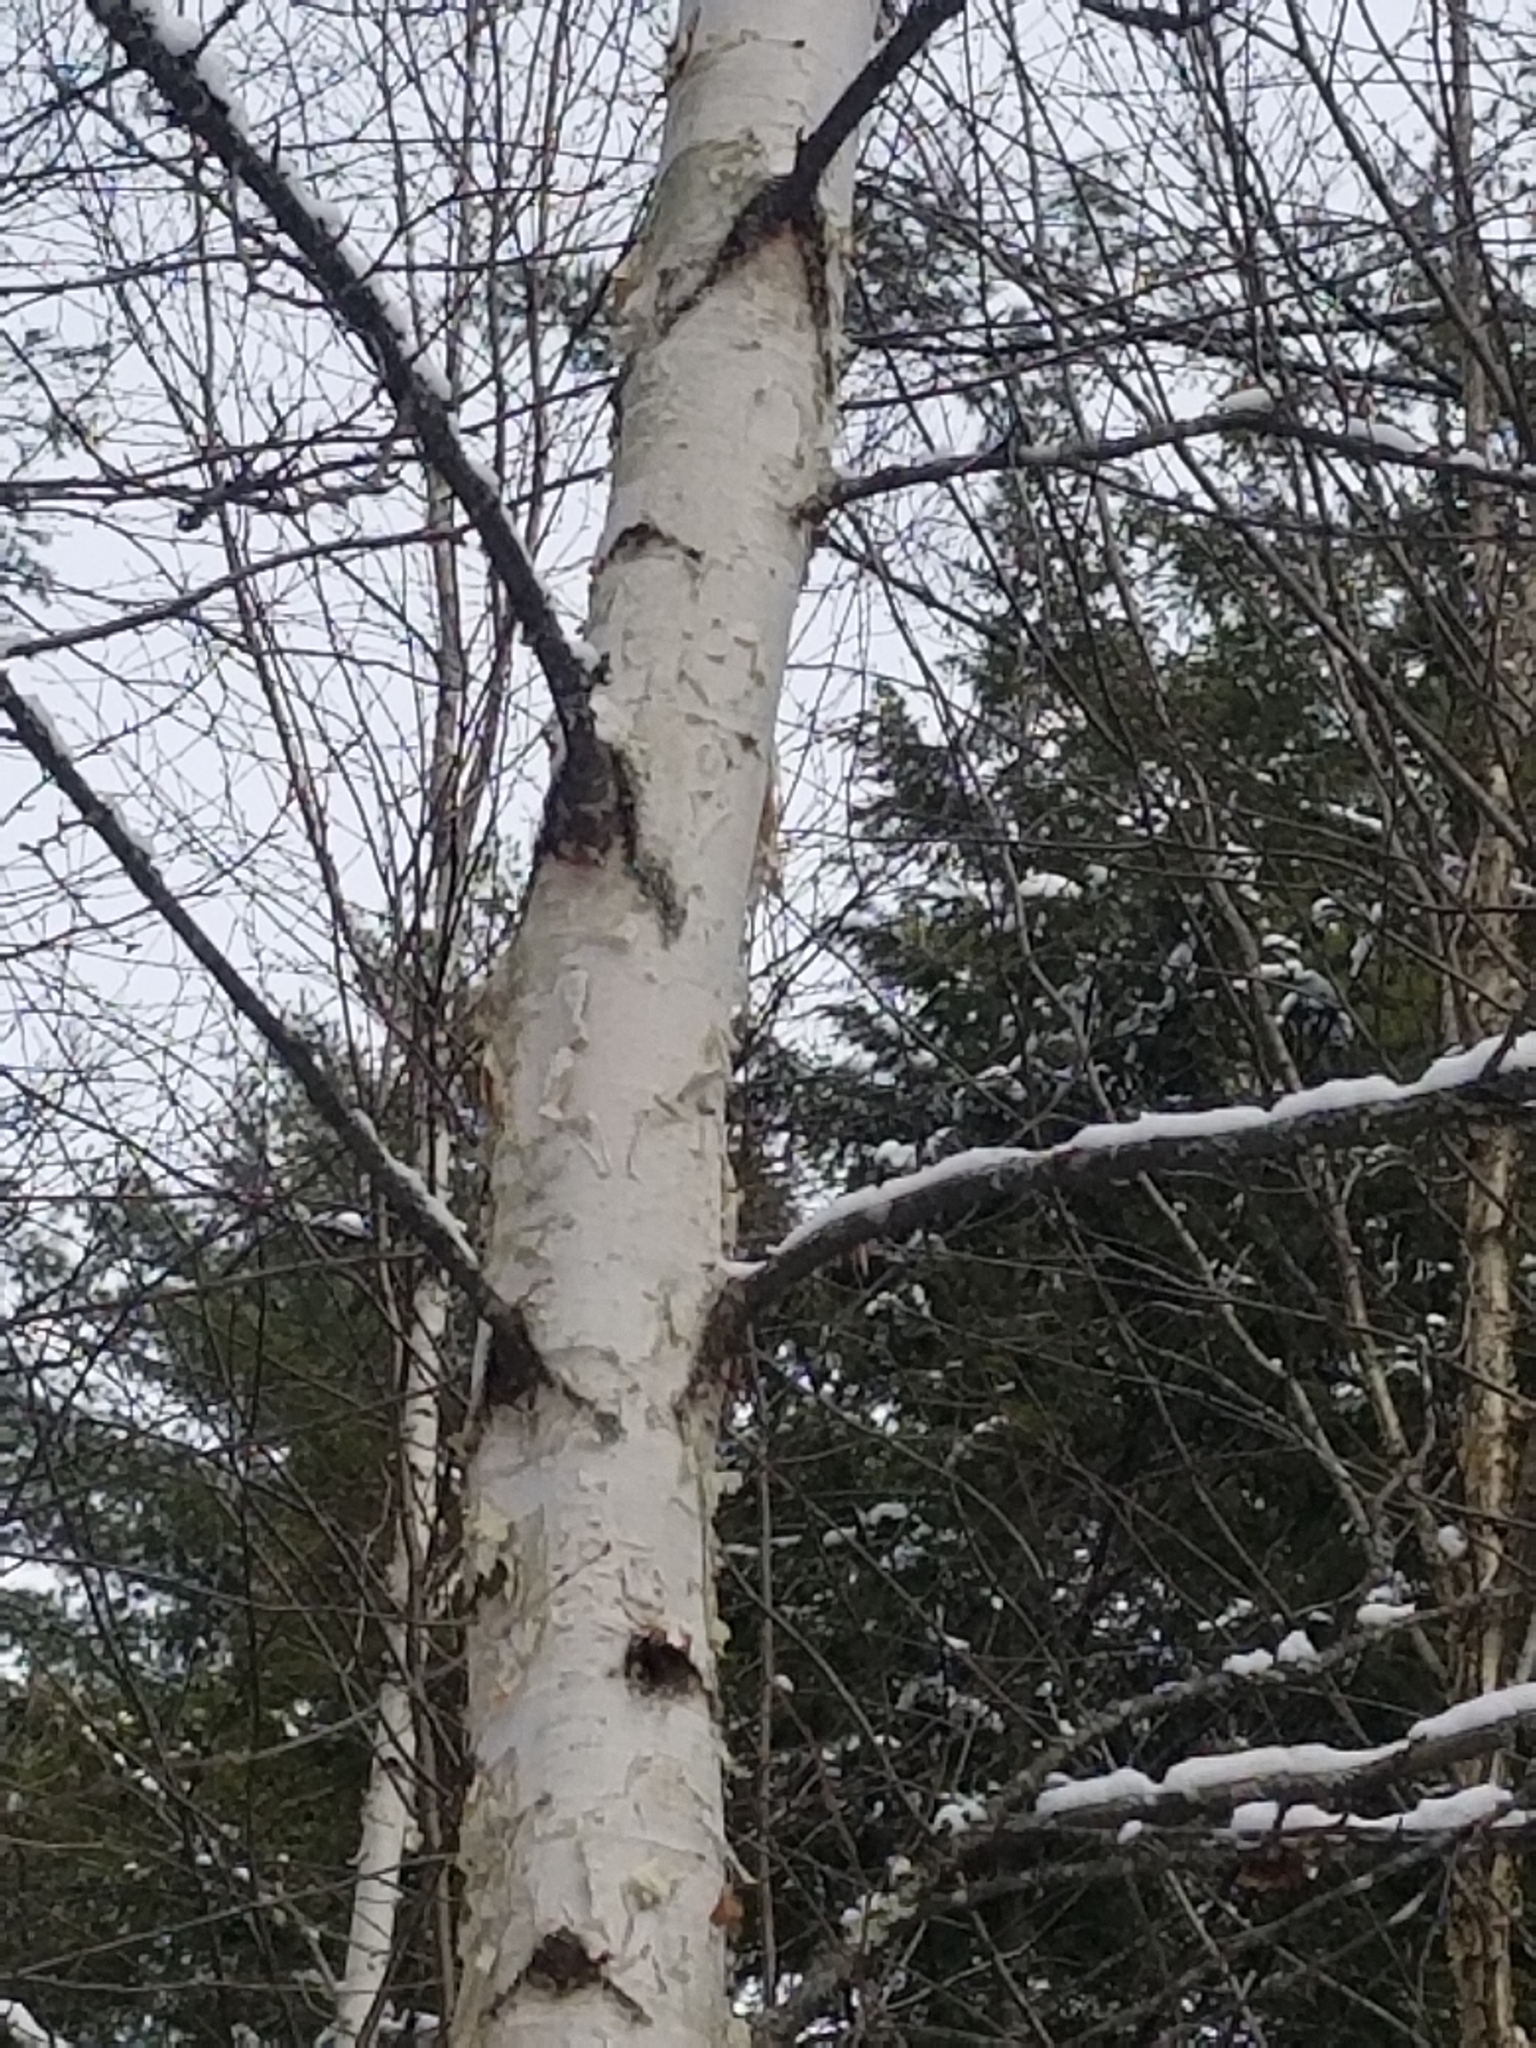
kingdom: Plantae
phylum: Tracheophyta
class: Magnoliopsida
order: Fagales
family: Betulaceae
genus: Betula
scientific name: Betula papyrifera
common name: Paper birch
